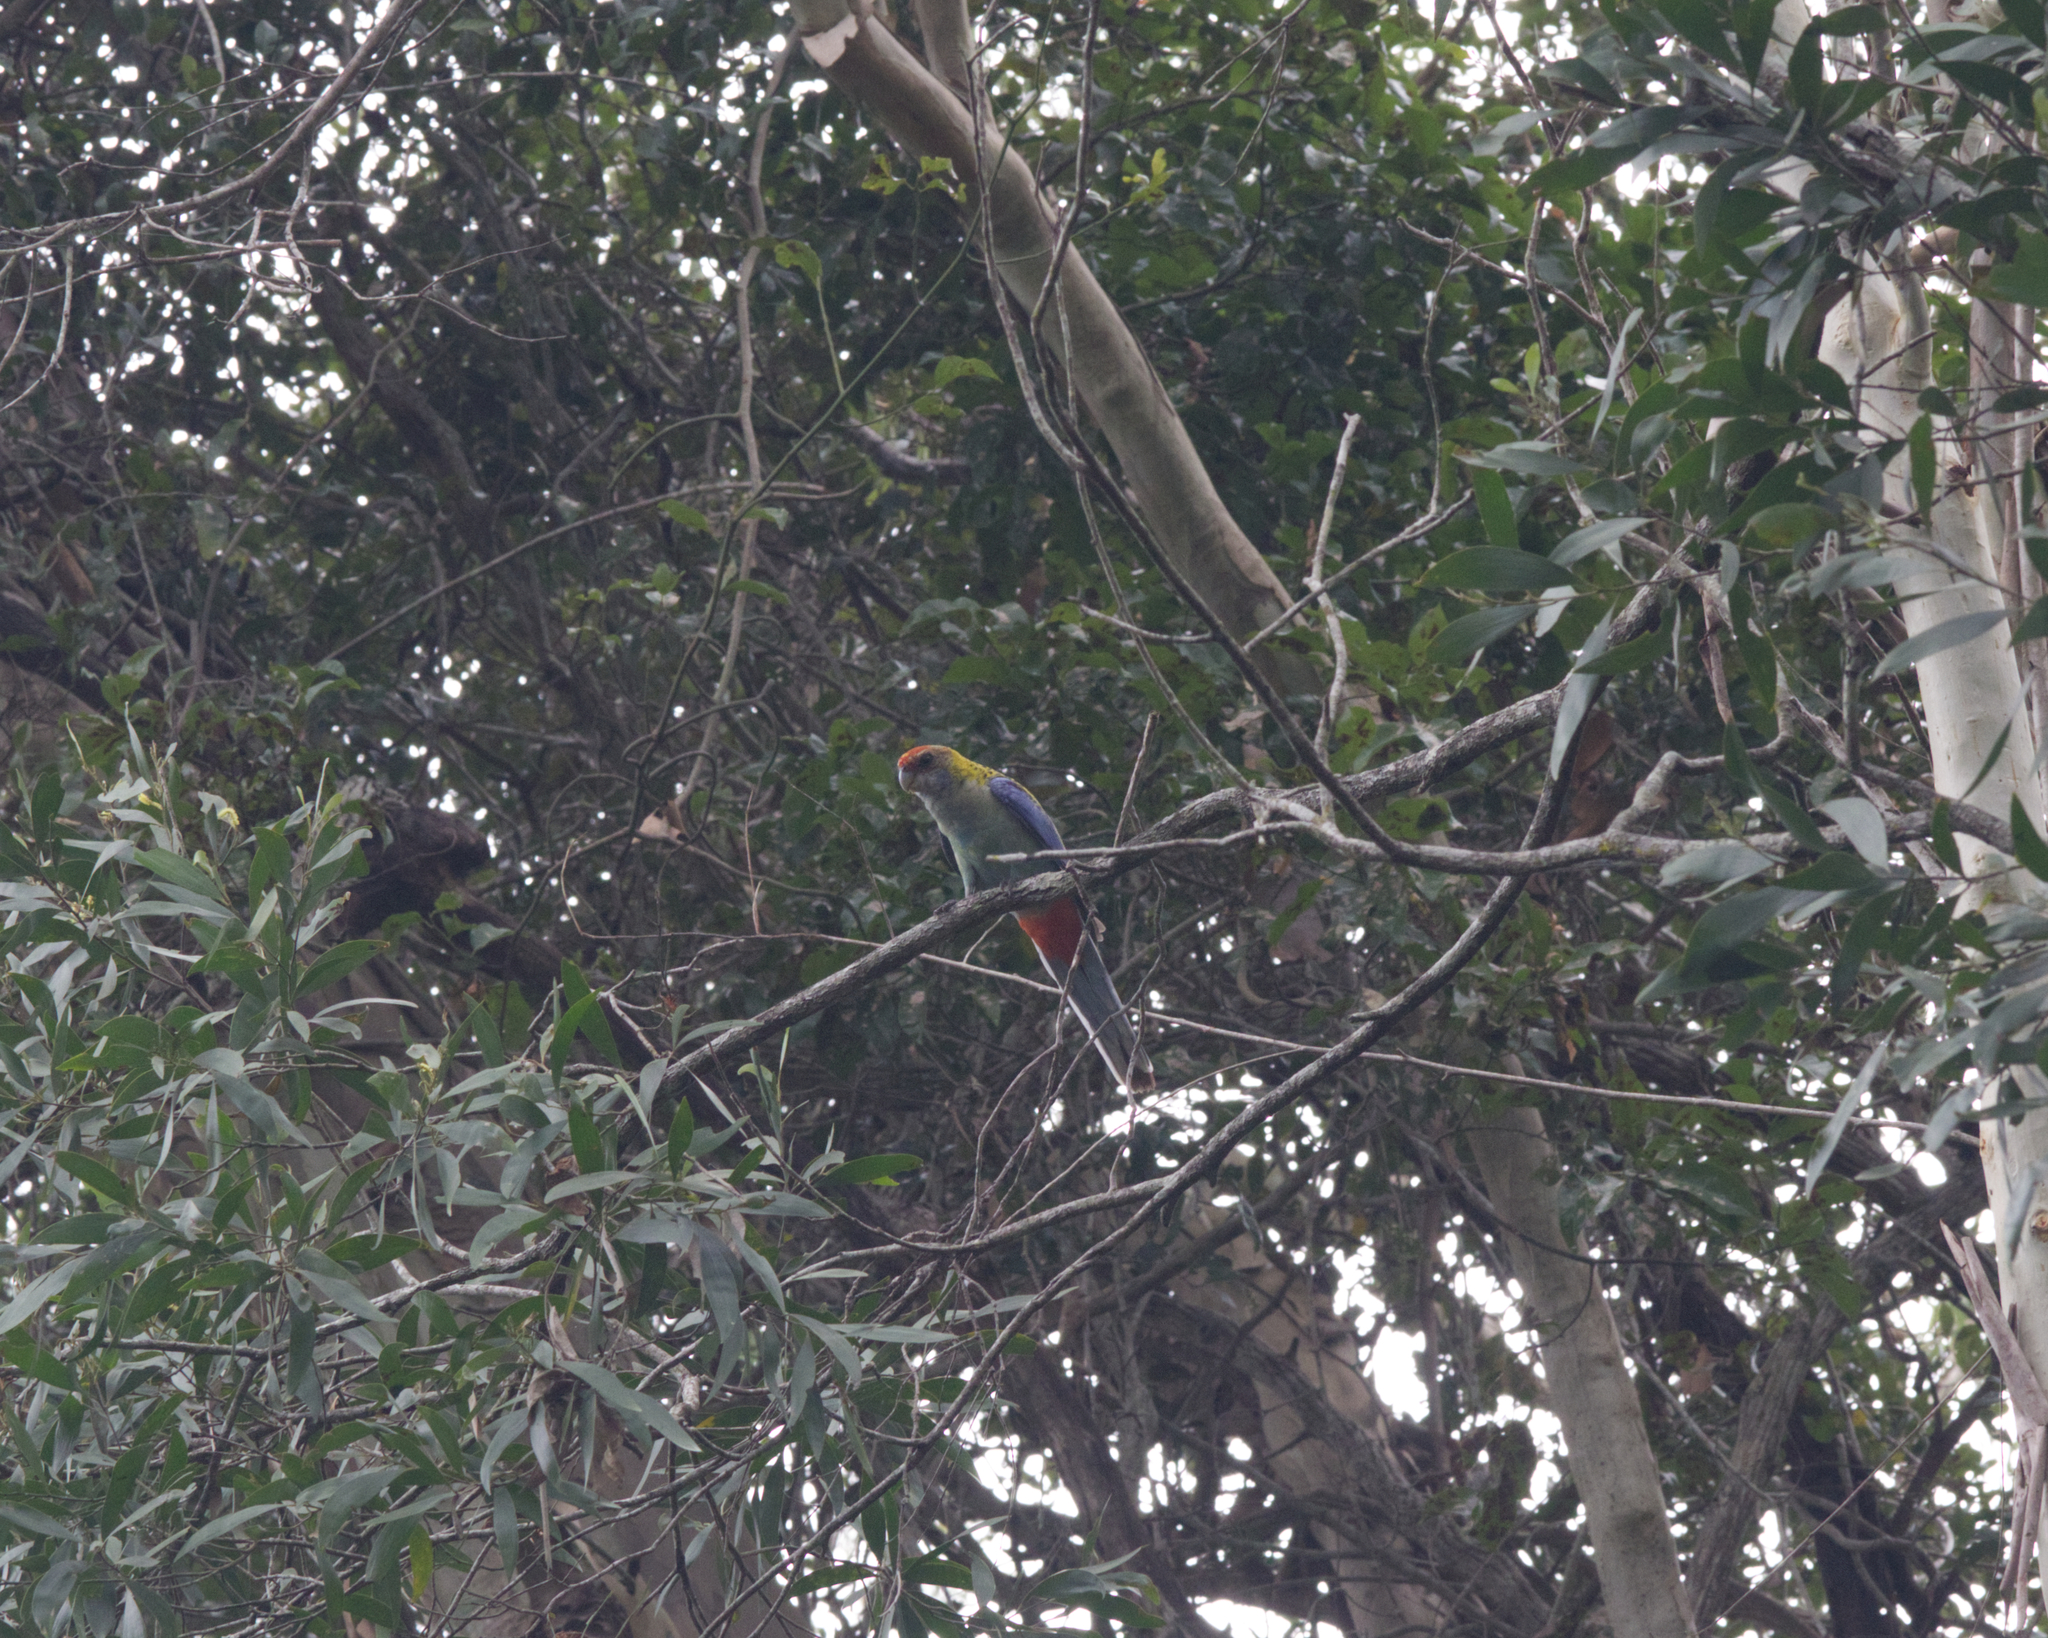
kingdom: Animalia
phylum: Chordata
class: Aves
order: Psittaciformes
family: Psittacidae
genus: Platycercus
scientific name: Platycercus adscitus
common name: Pale-headed rosella
